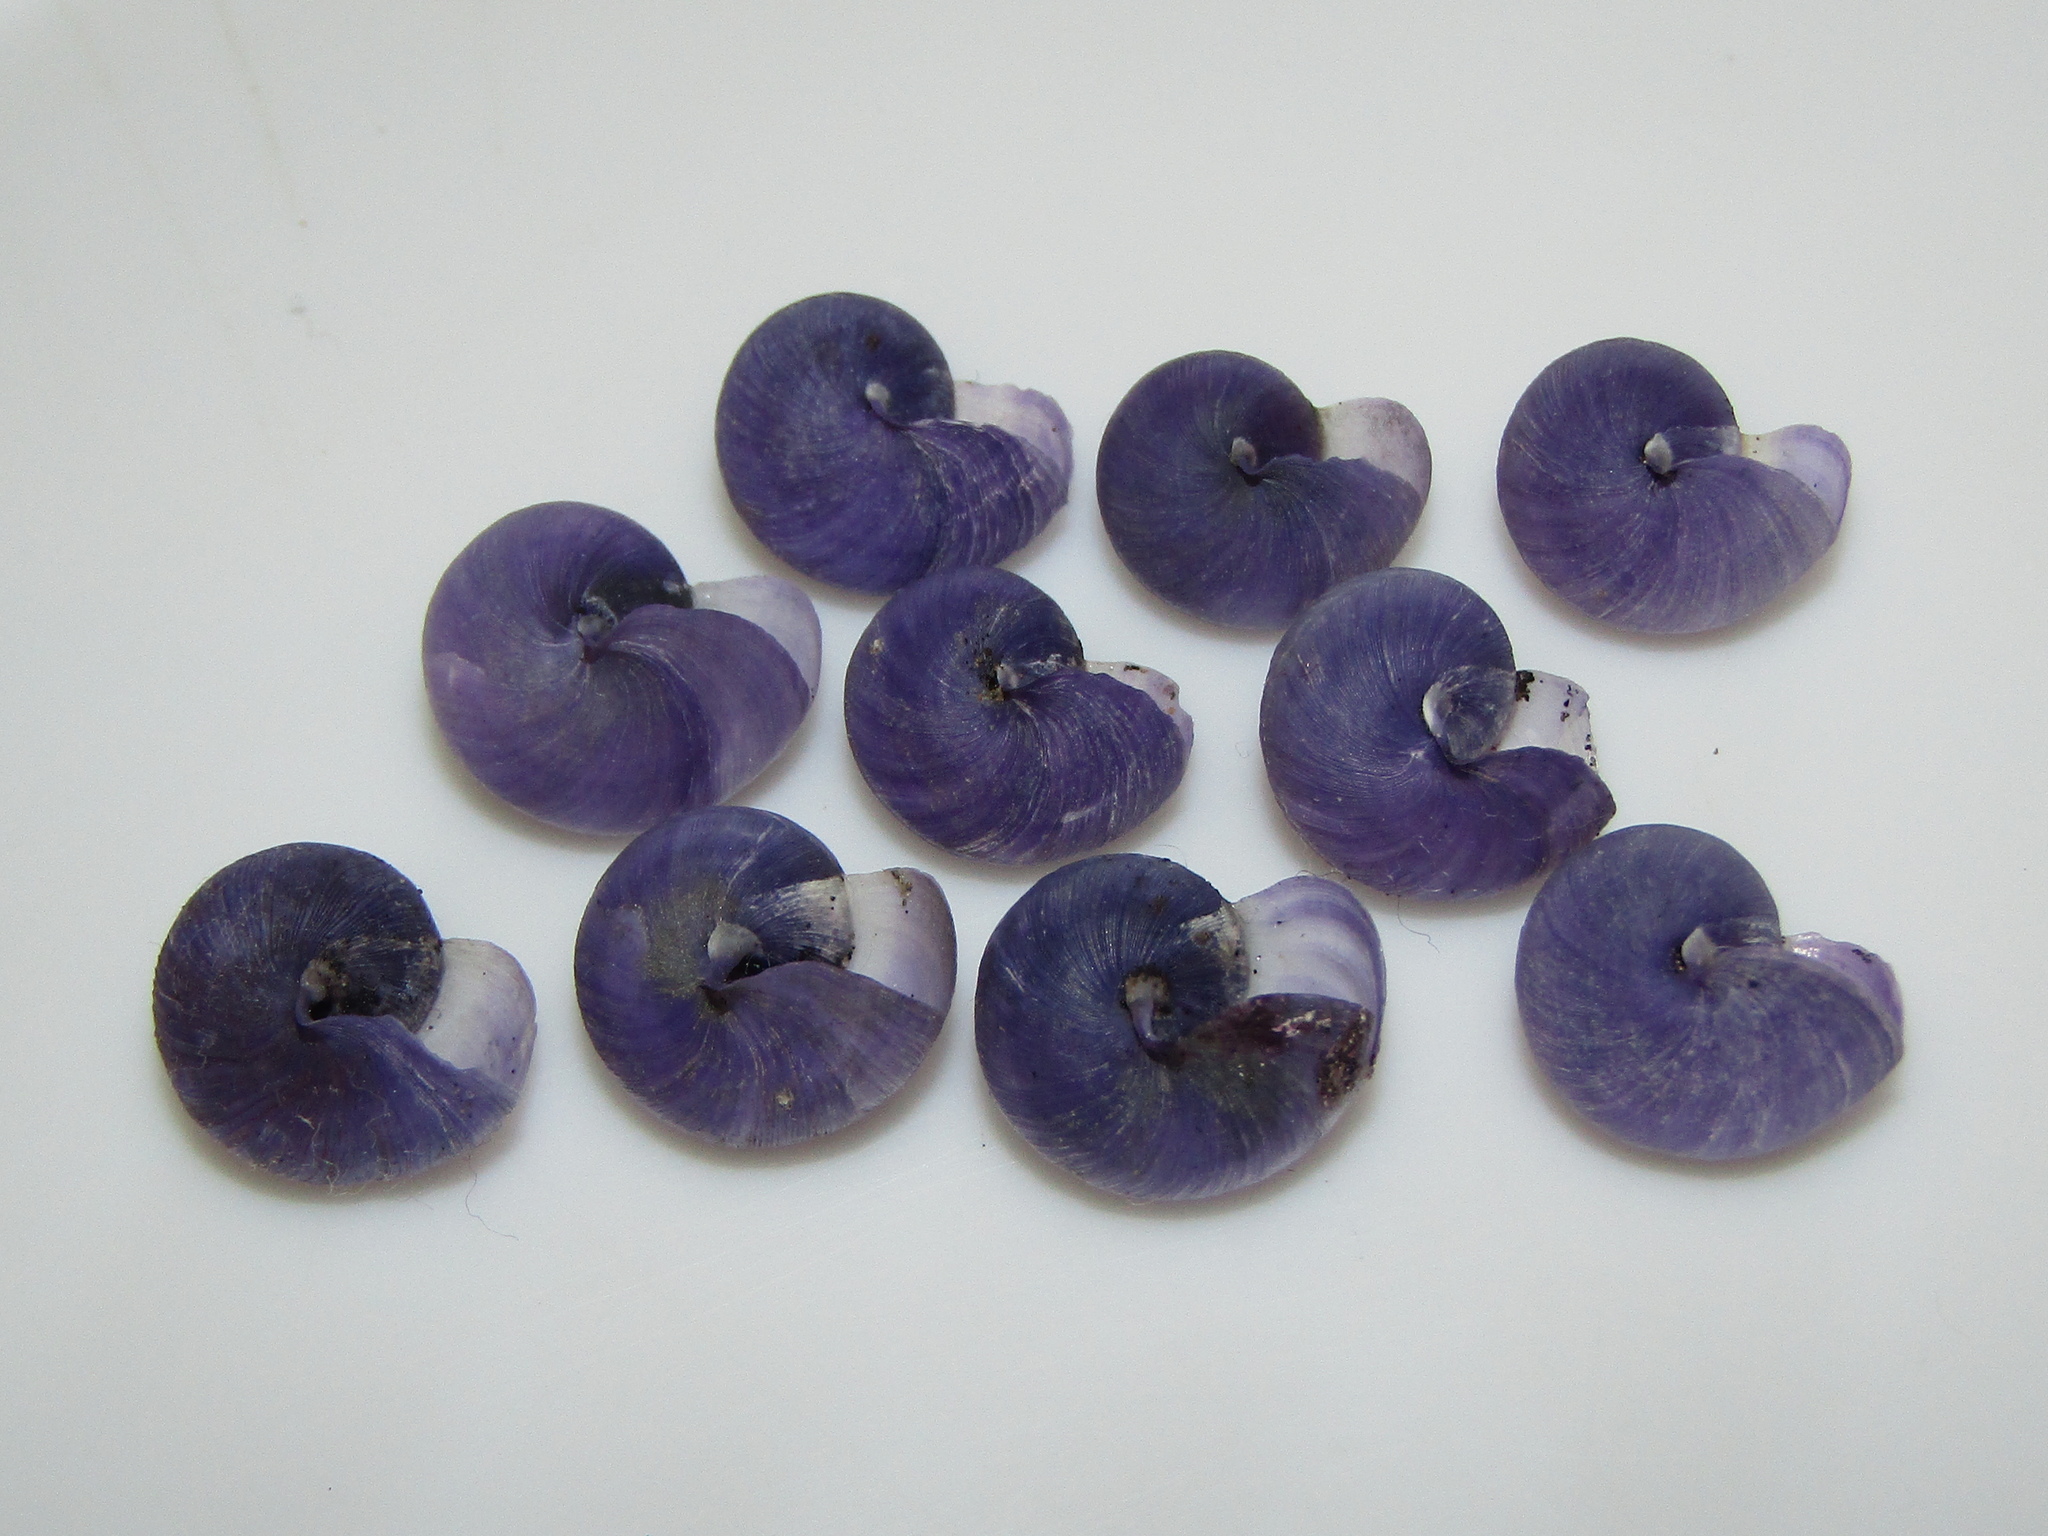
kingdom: Animalia
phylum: Mollusca
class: Gastropoda
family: Epitoniidae
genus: Janthina
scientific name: Janthina exigua
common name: Dwarf janthina
